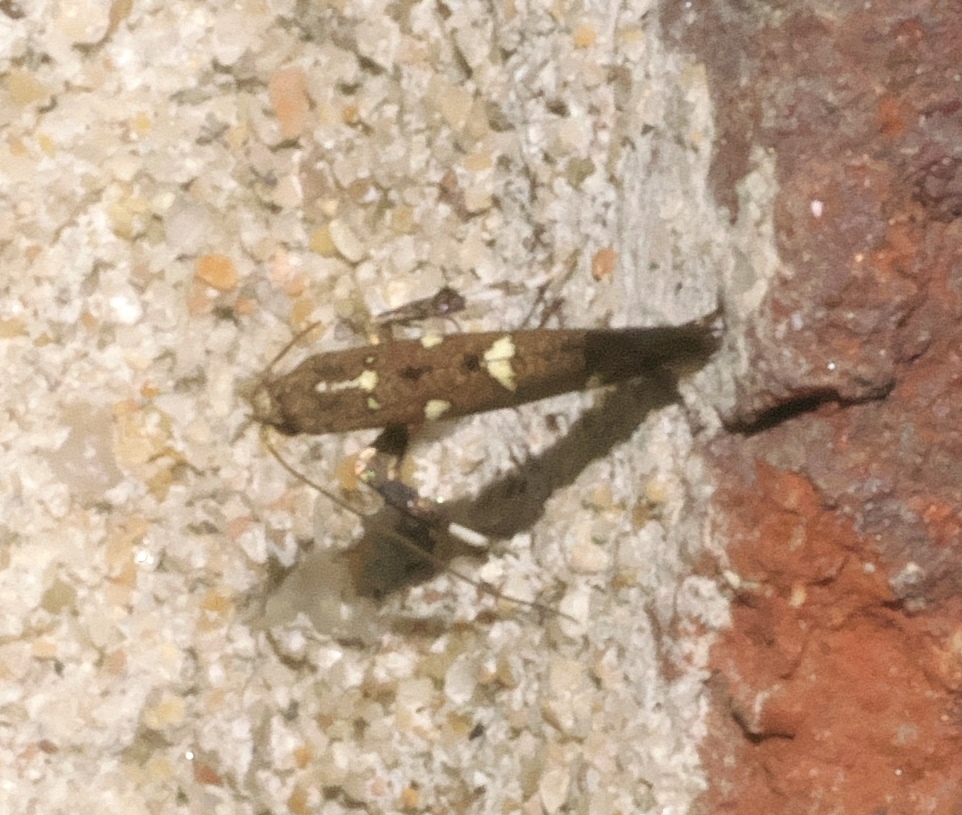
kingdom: Animalia
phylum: Arthropoda
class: Insecta
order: Lepidoptera
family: Gracillariidae
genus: Caloptilia
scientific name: Caloptilia triadicae
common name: Tallow leaf roller
